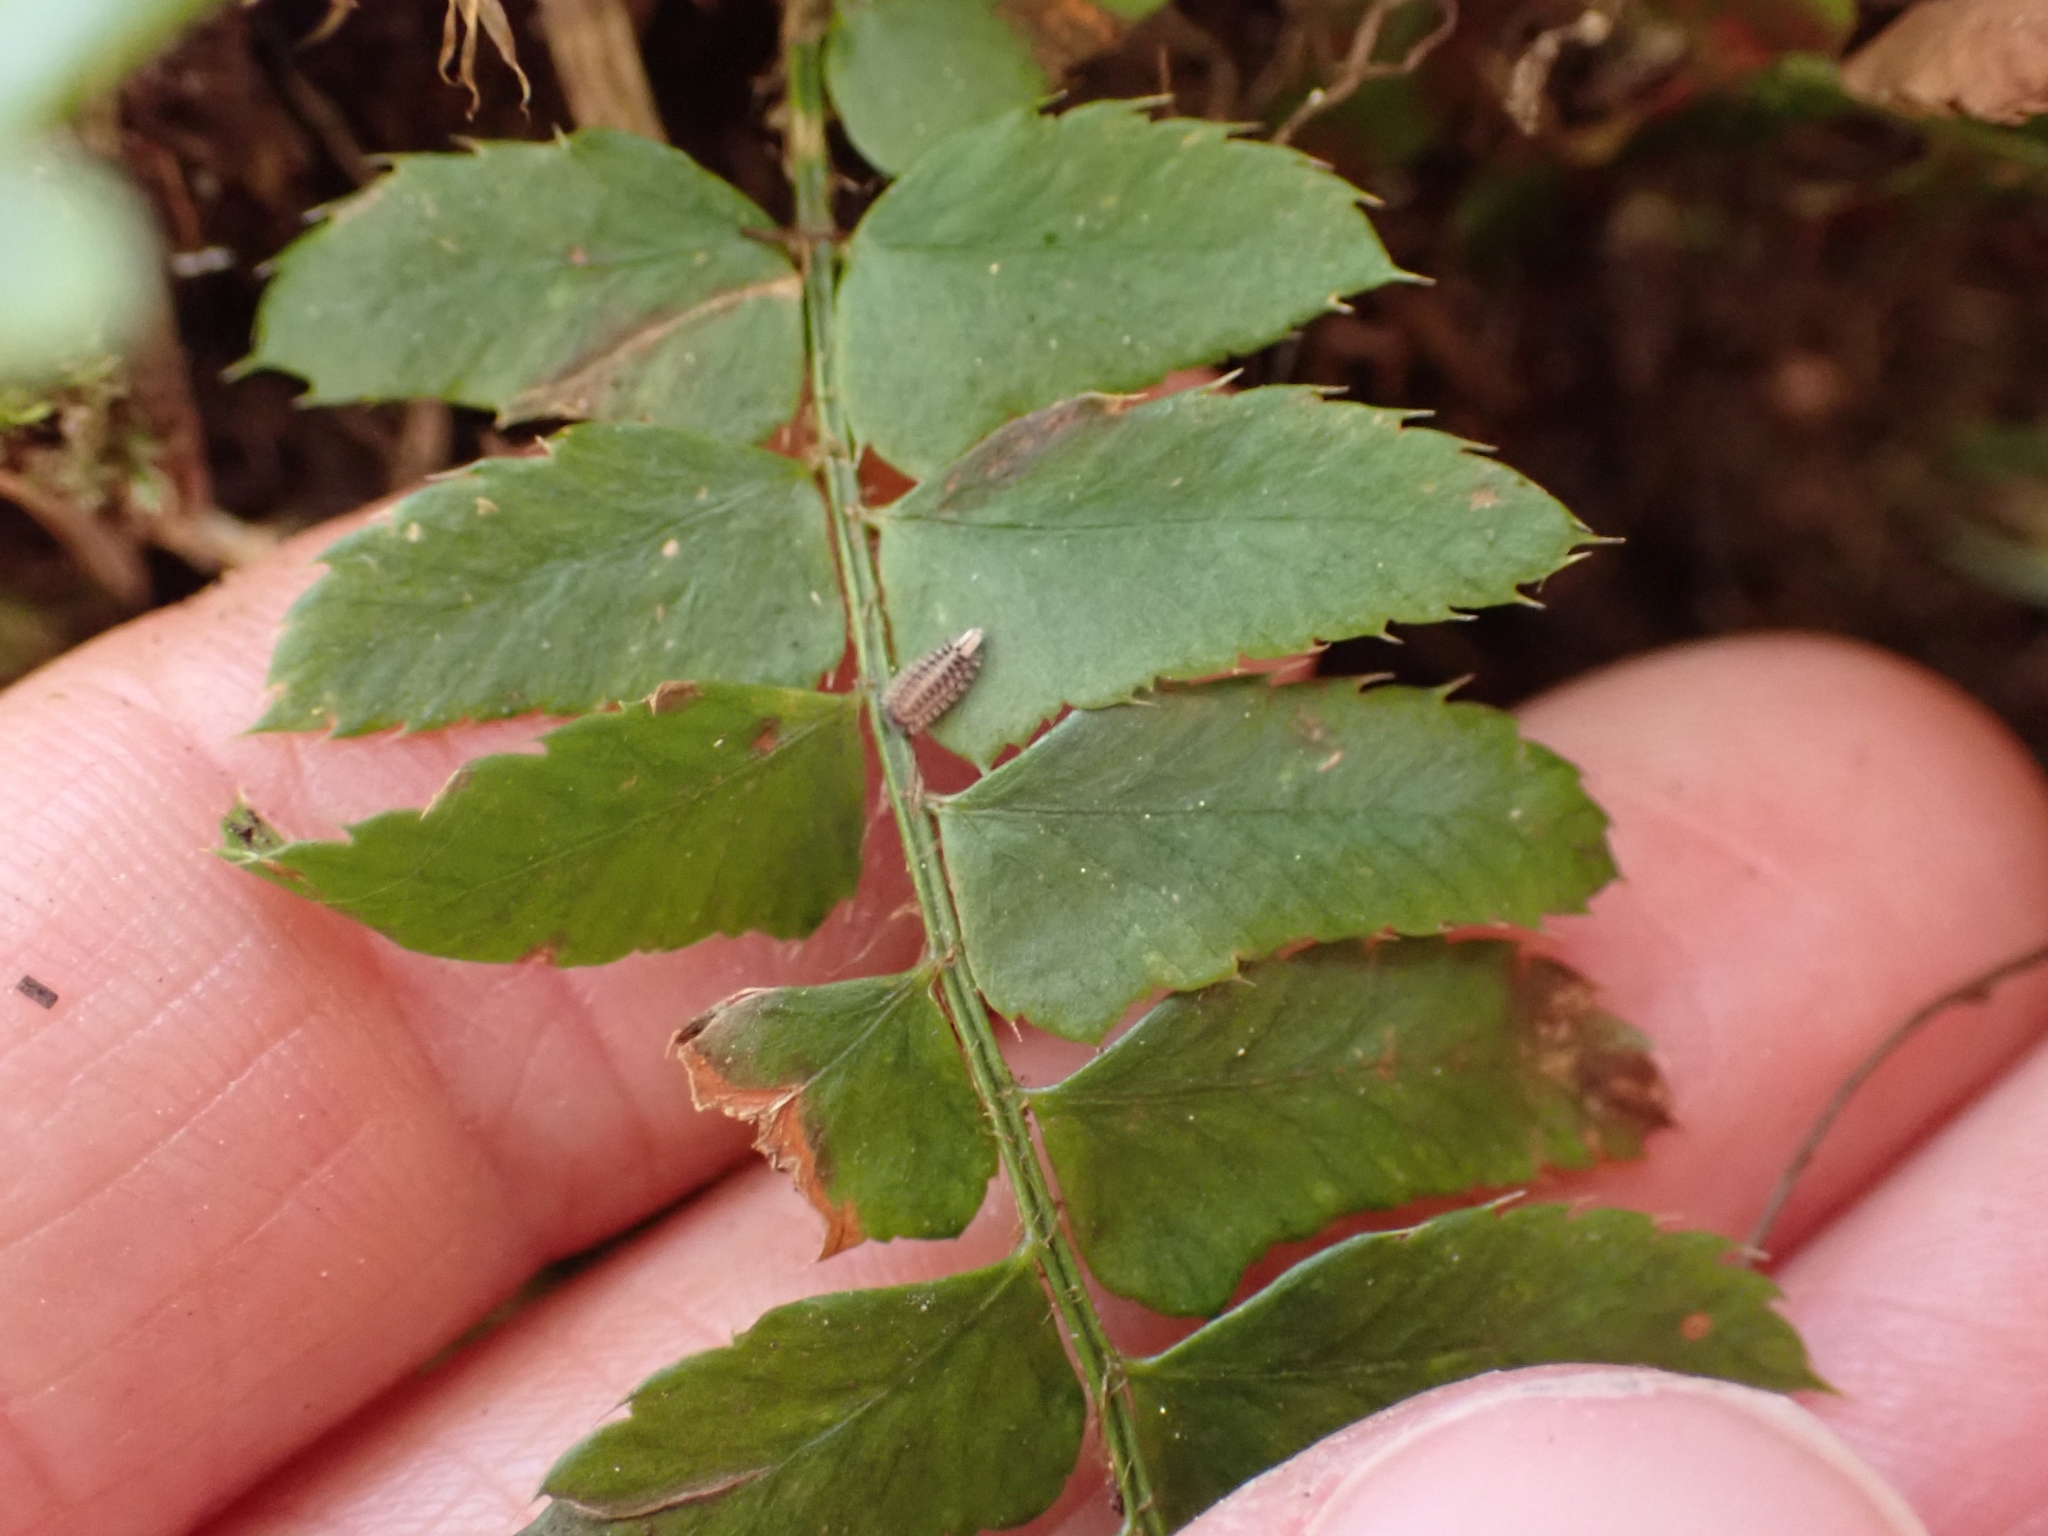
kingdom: Plantae
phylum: Tracheophyta
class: Polypodiopsida
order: Polypodiales
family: Dryopteridaceae
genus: Polystichum
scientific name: Polystichum munitum
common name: Western sword-fern
